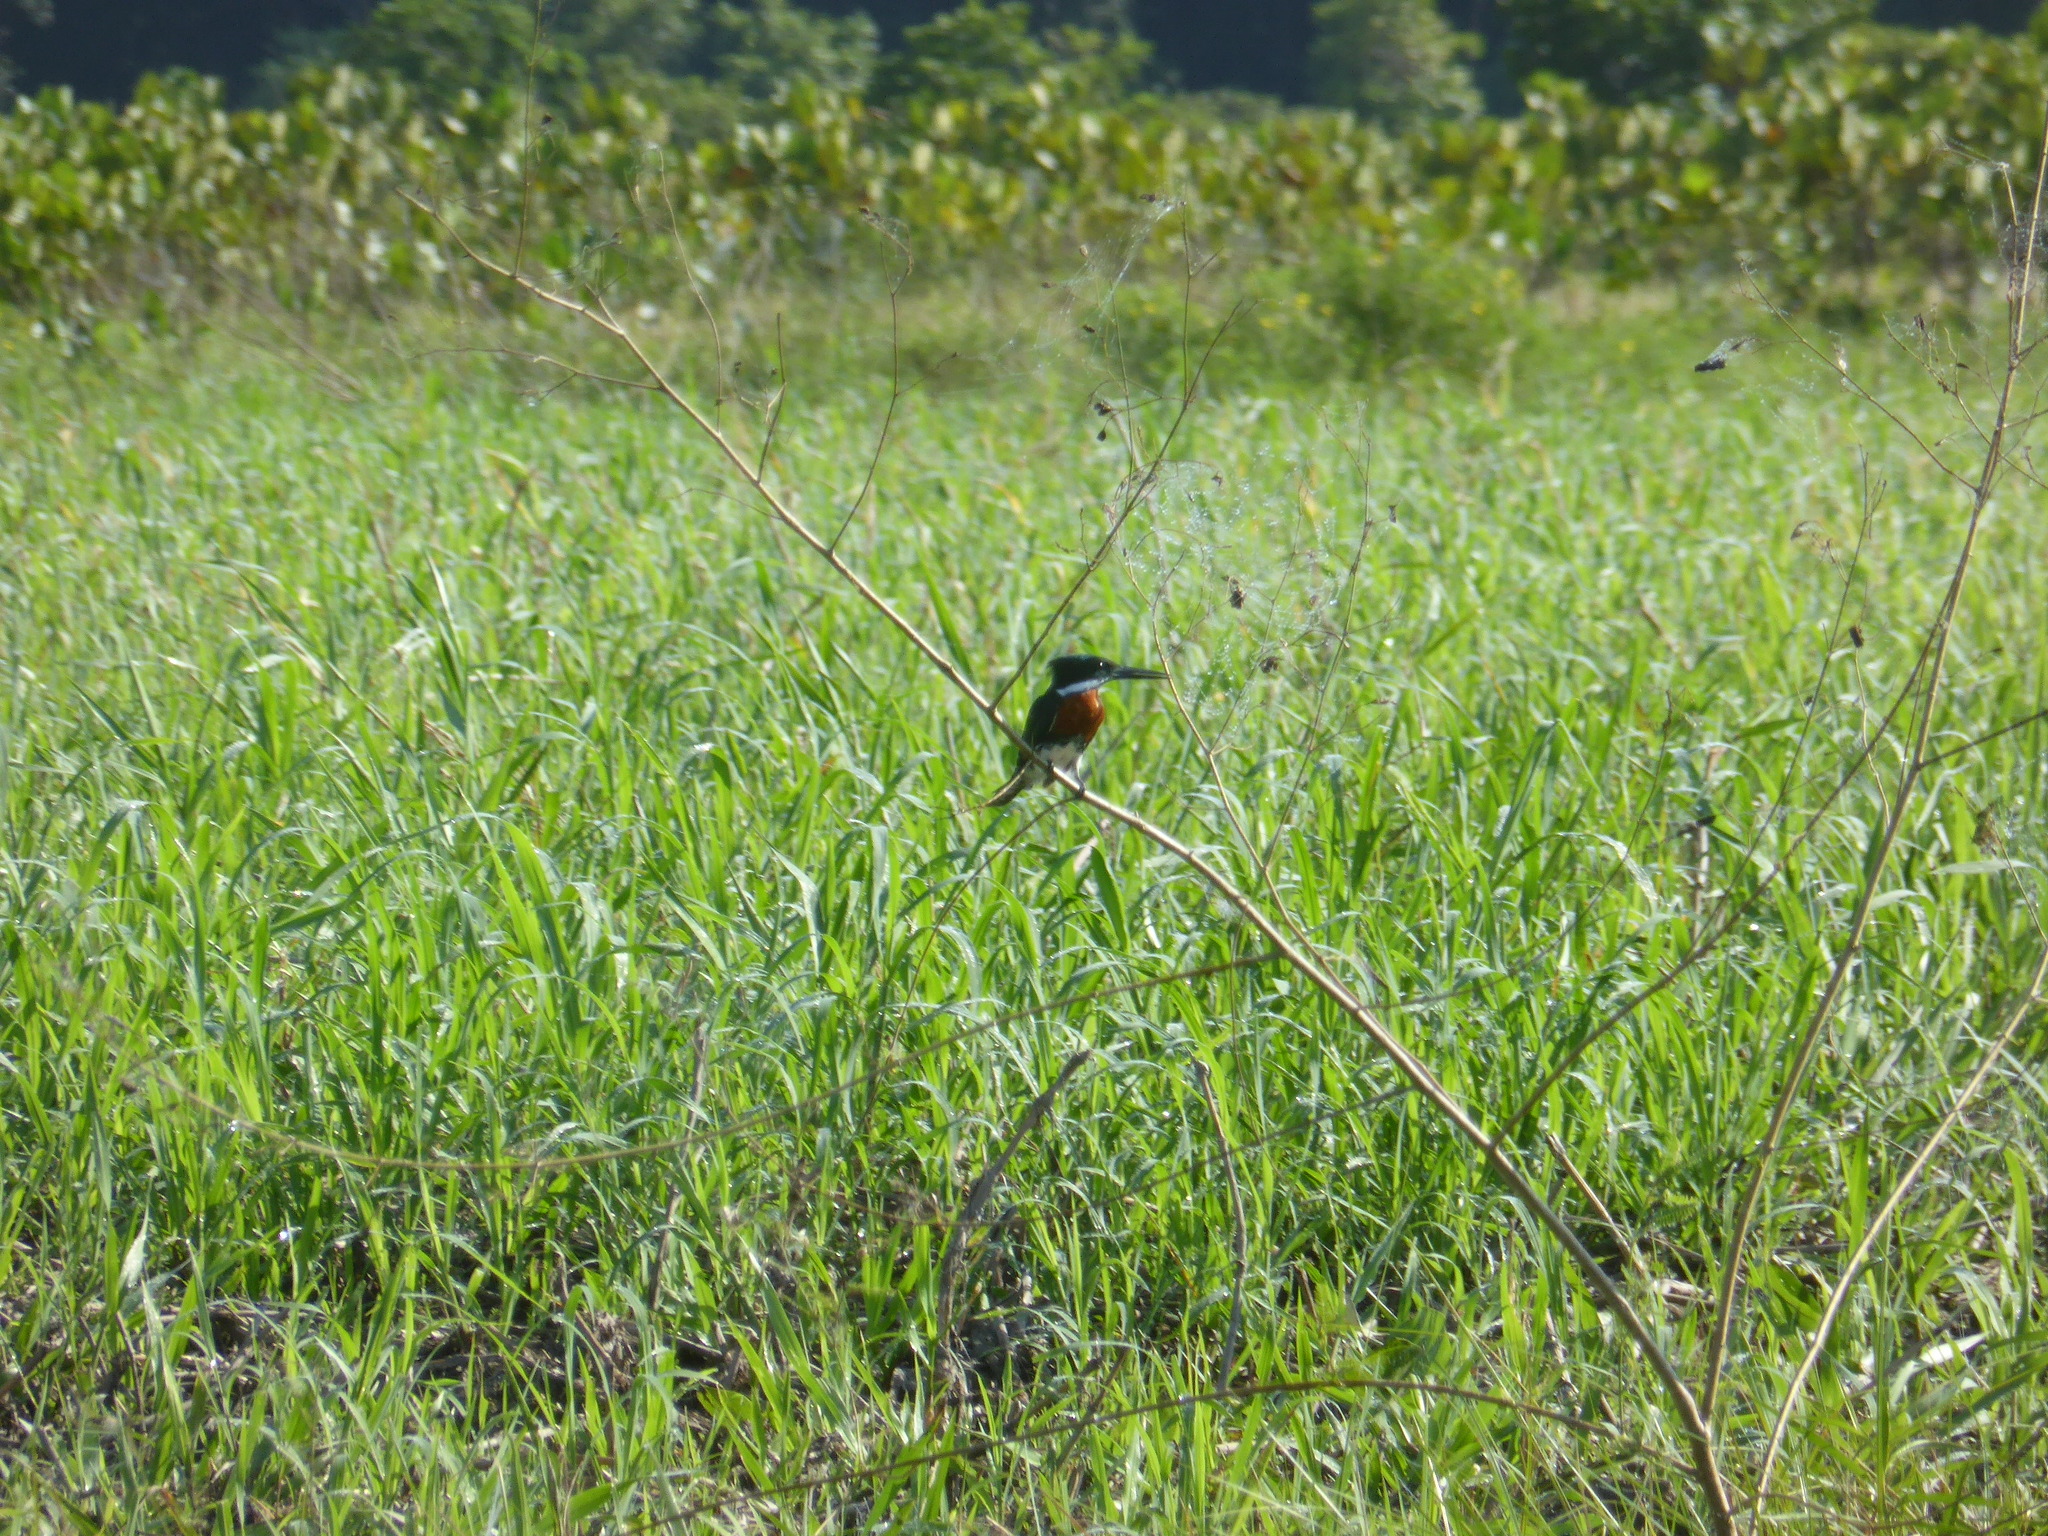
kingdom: Animalia
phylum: Chordata
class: Aves
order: Coraciiformes
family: Alcedinidae
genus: Chloroceryle
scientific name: Chloroceryle americana
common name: Green kingfisher
